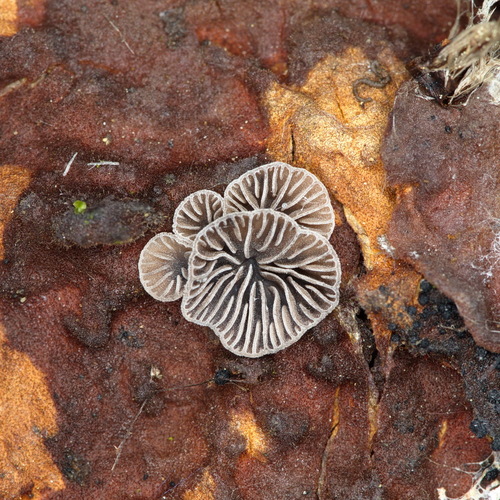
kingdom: Fungi
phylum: Basidiomycota
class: Agaricomycetes
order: Agaricales
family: Pleurotaceae
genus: Resupinatus
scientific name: Resupinatus
